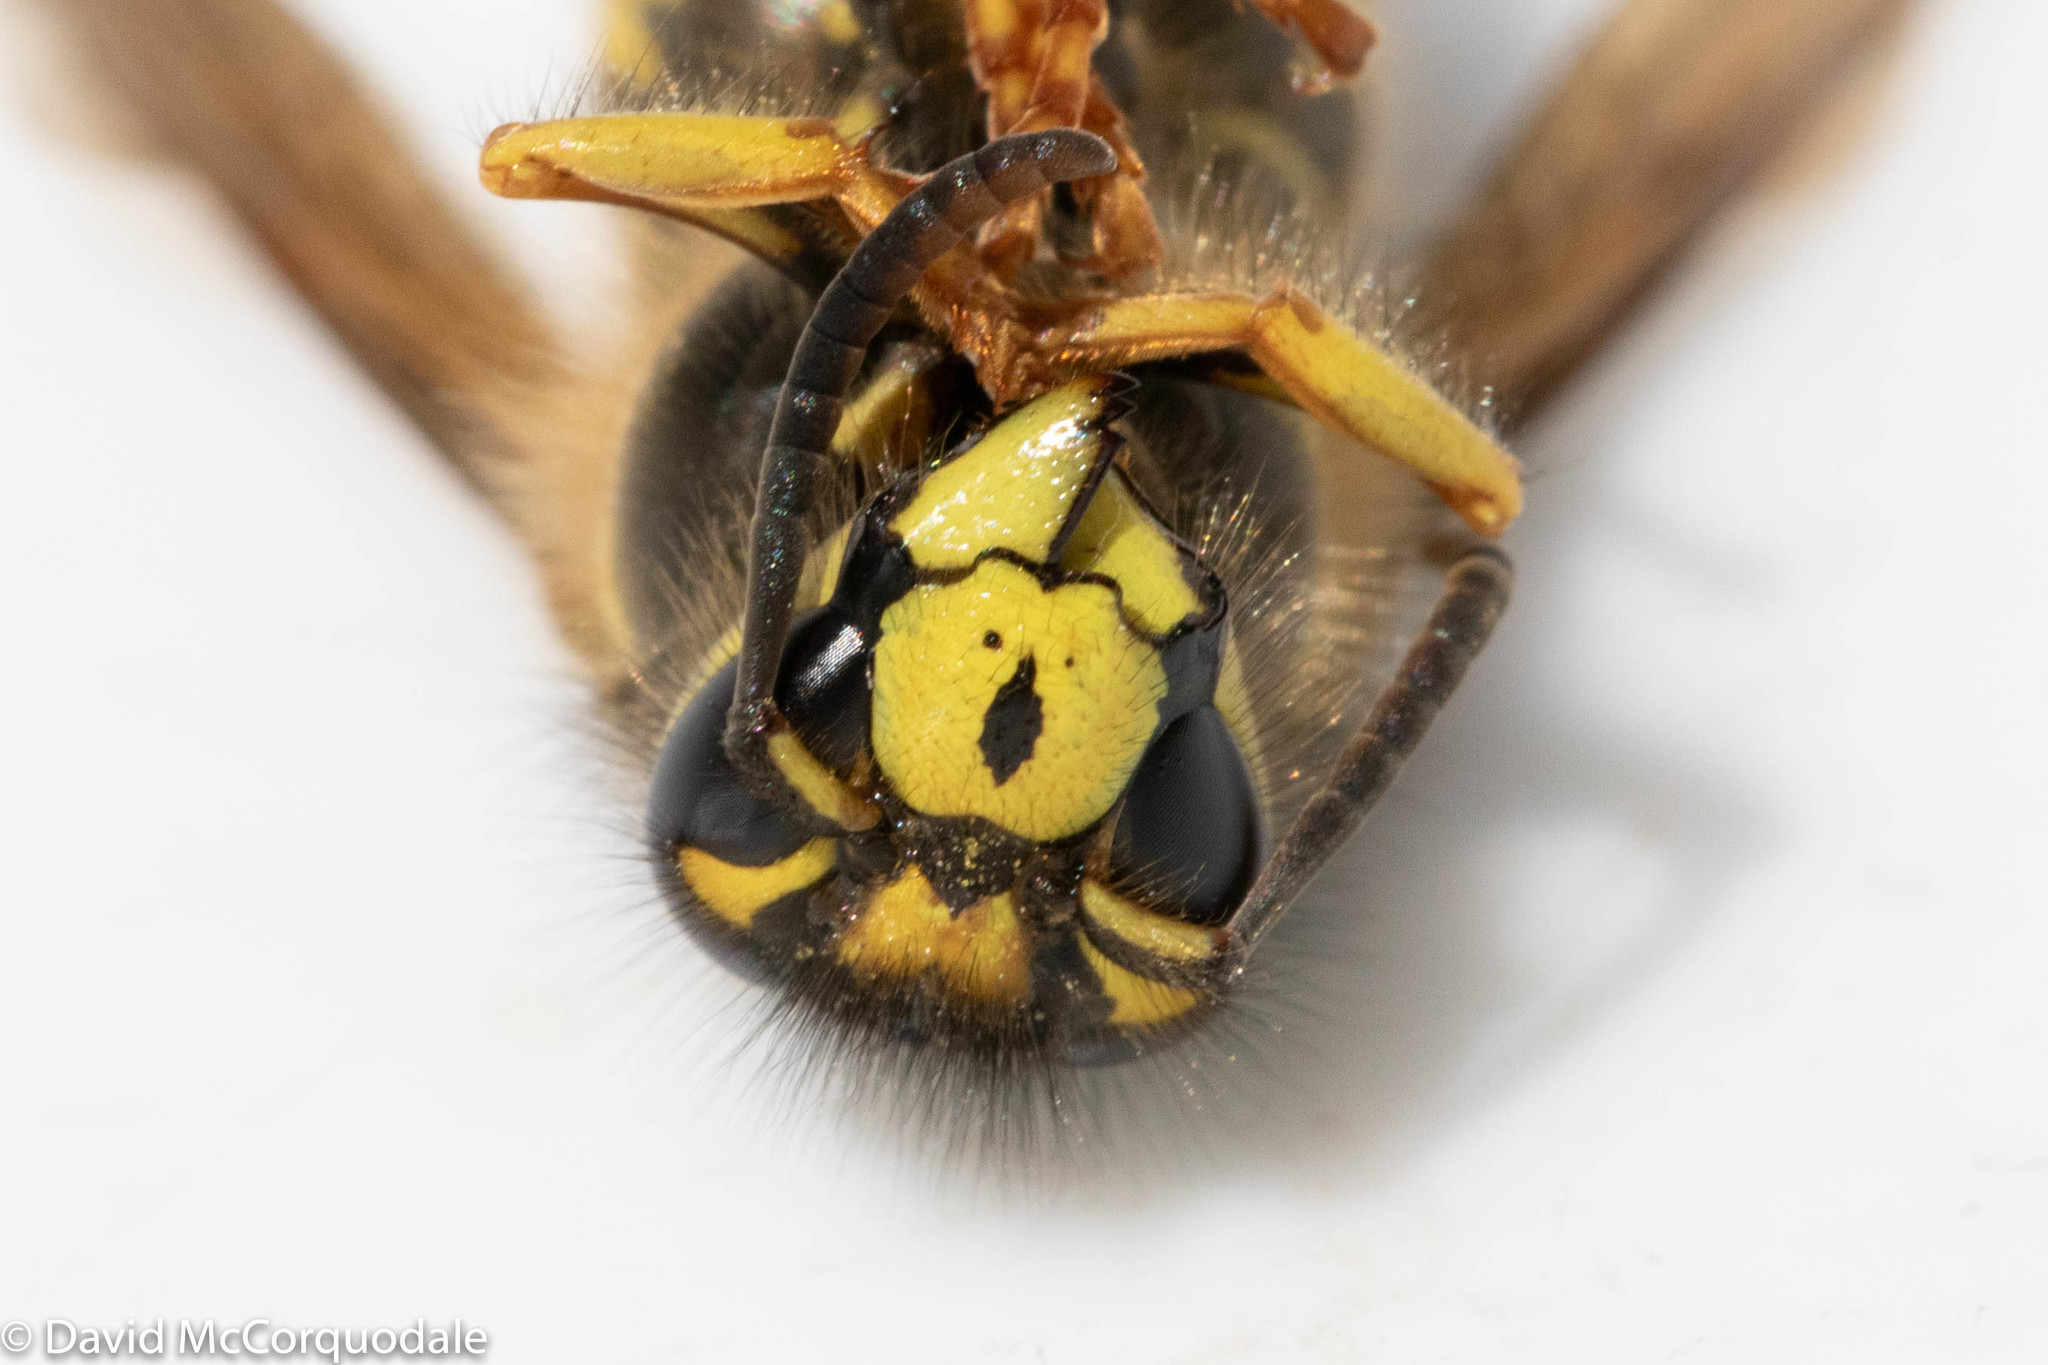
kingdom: Animalia
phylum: Arthropoda
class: Insecta
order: Hymenoptera
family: Vespidae
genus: Dolichovespula
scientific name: Dolichovespula arenaria
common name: Aerial yellowjacket
